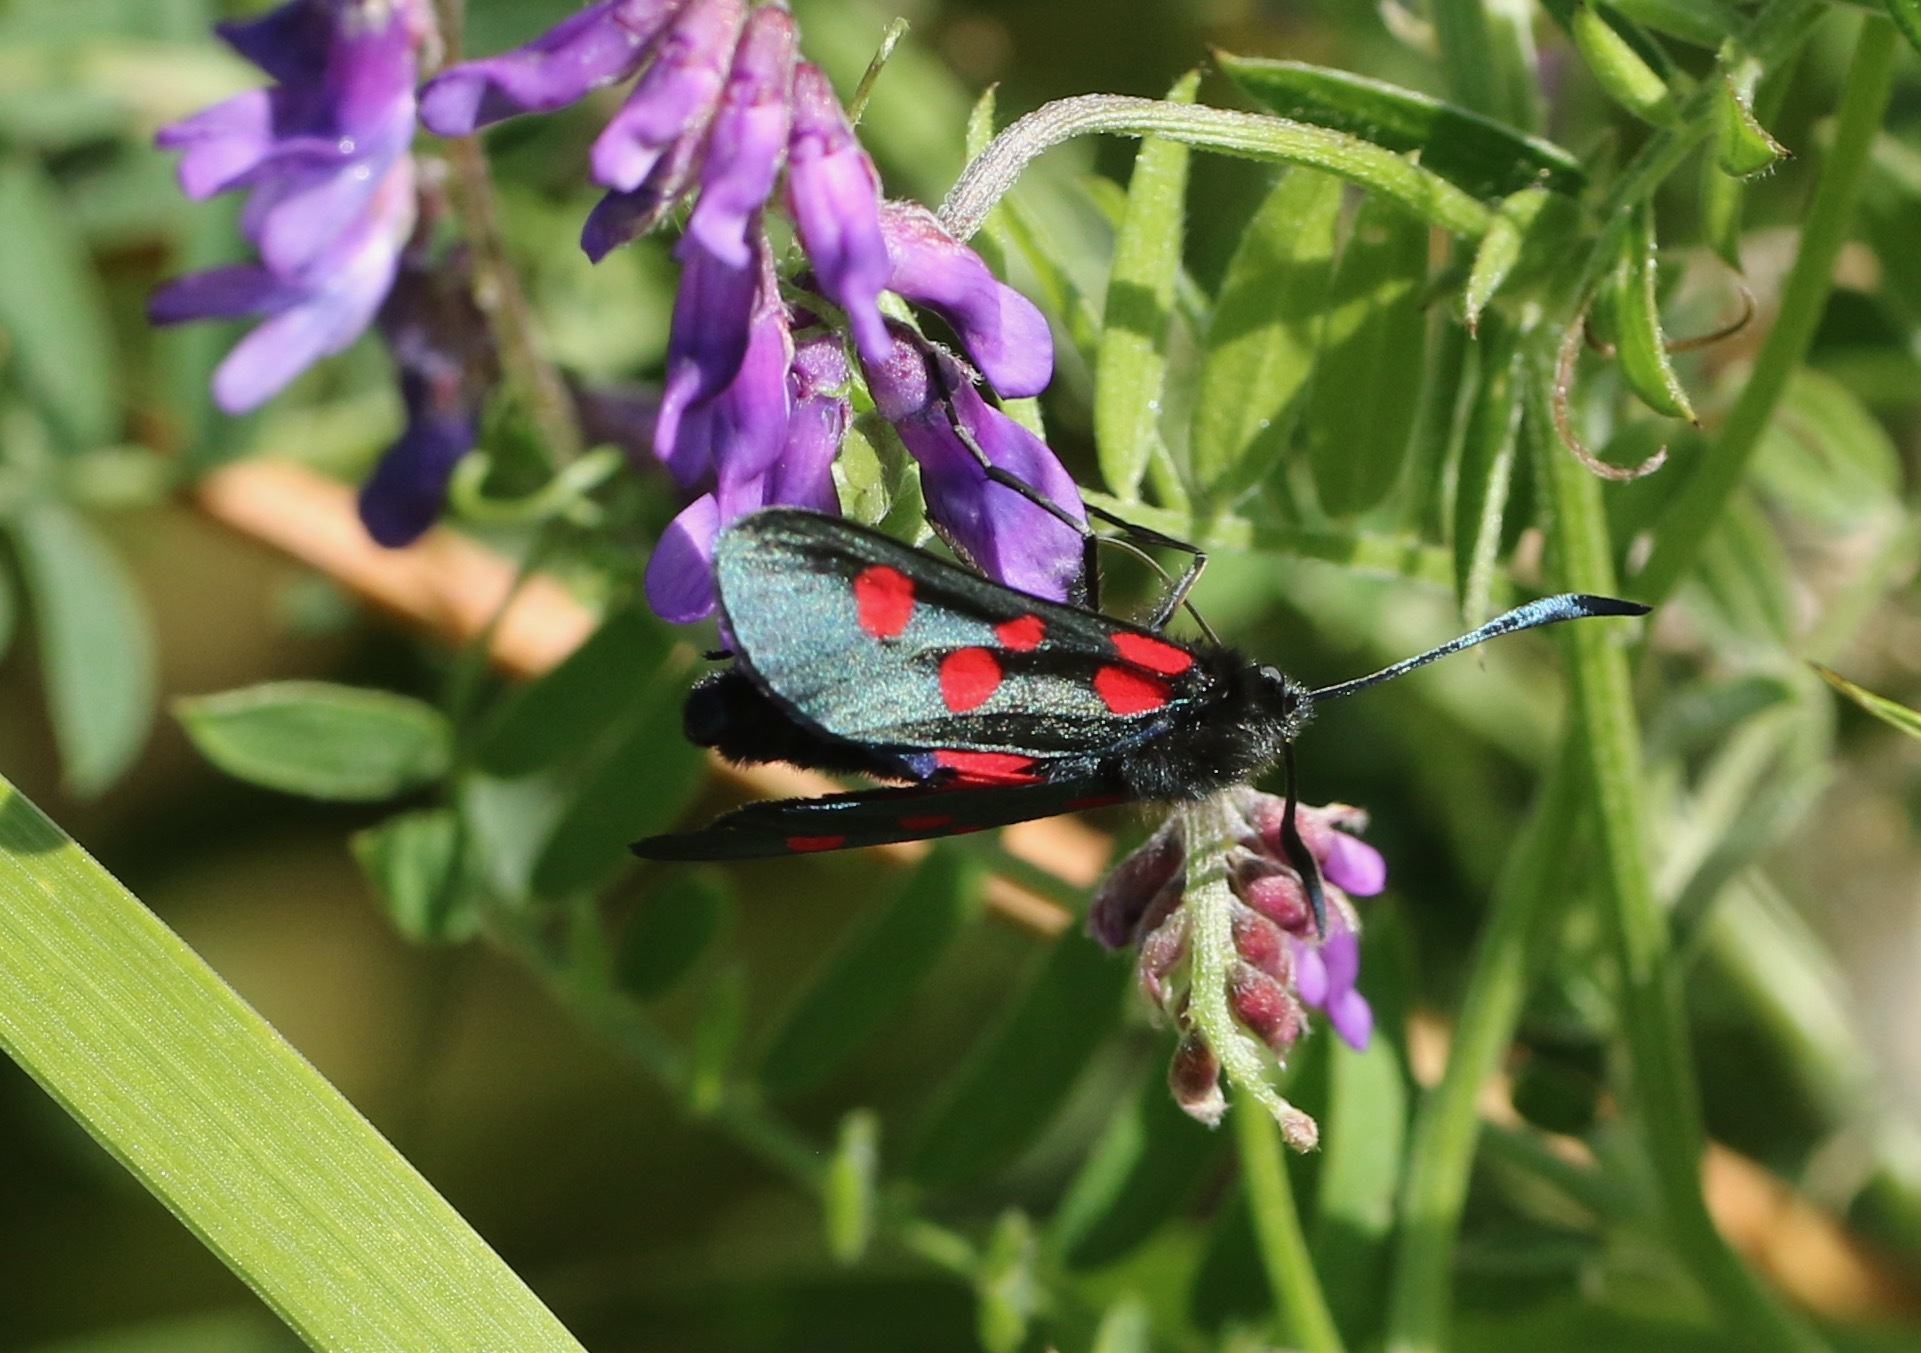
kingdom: Animalia
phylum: Arthropoda
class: Insecta
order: Lepidoptera
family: Zygaenidae
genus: Zygaena
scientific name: Zygaena lonicerae
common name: Narrow-bordered five-spot burnet
